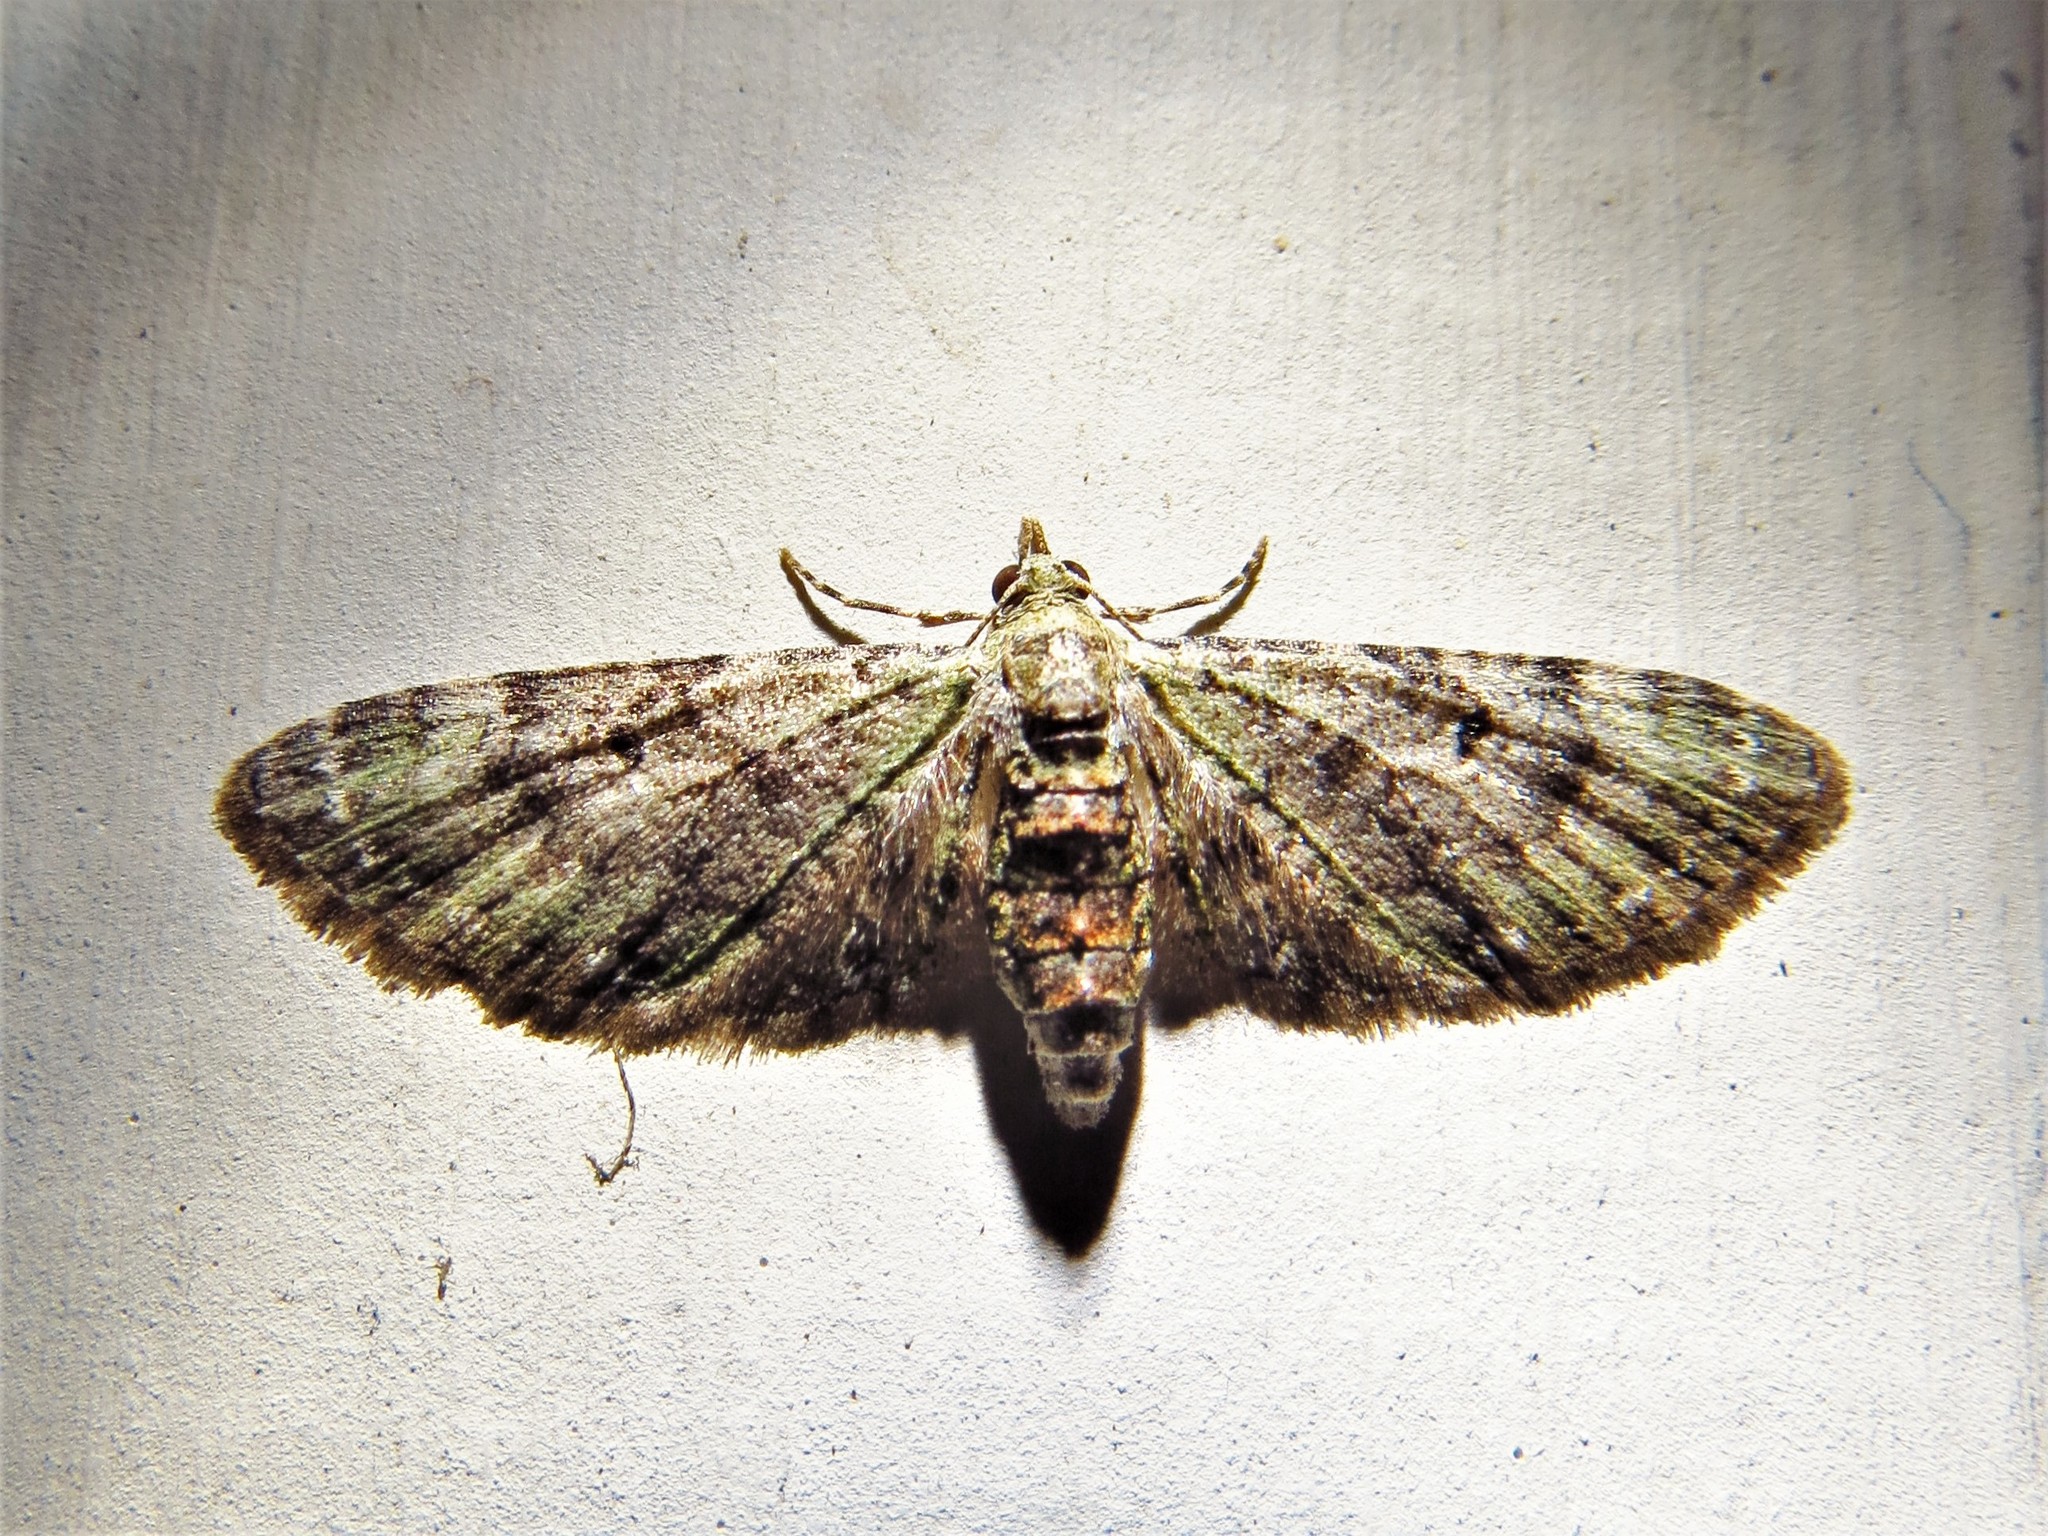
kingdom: Animalia
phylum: Arthropoda
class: Insecta
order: Lepidoptera
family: Geometridae
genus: Eupithecia
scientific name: Eupithecia miserulata
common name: Common eupithecia
